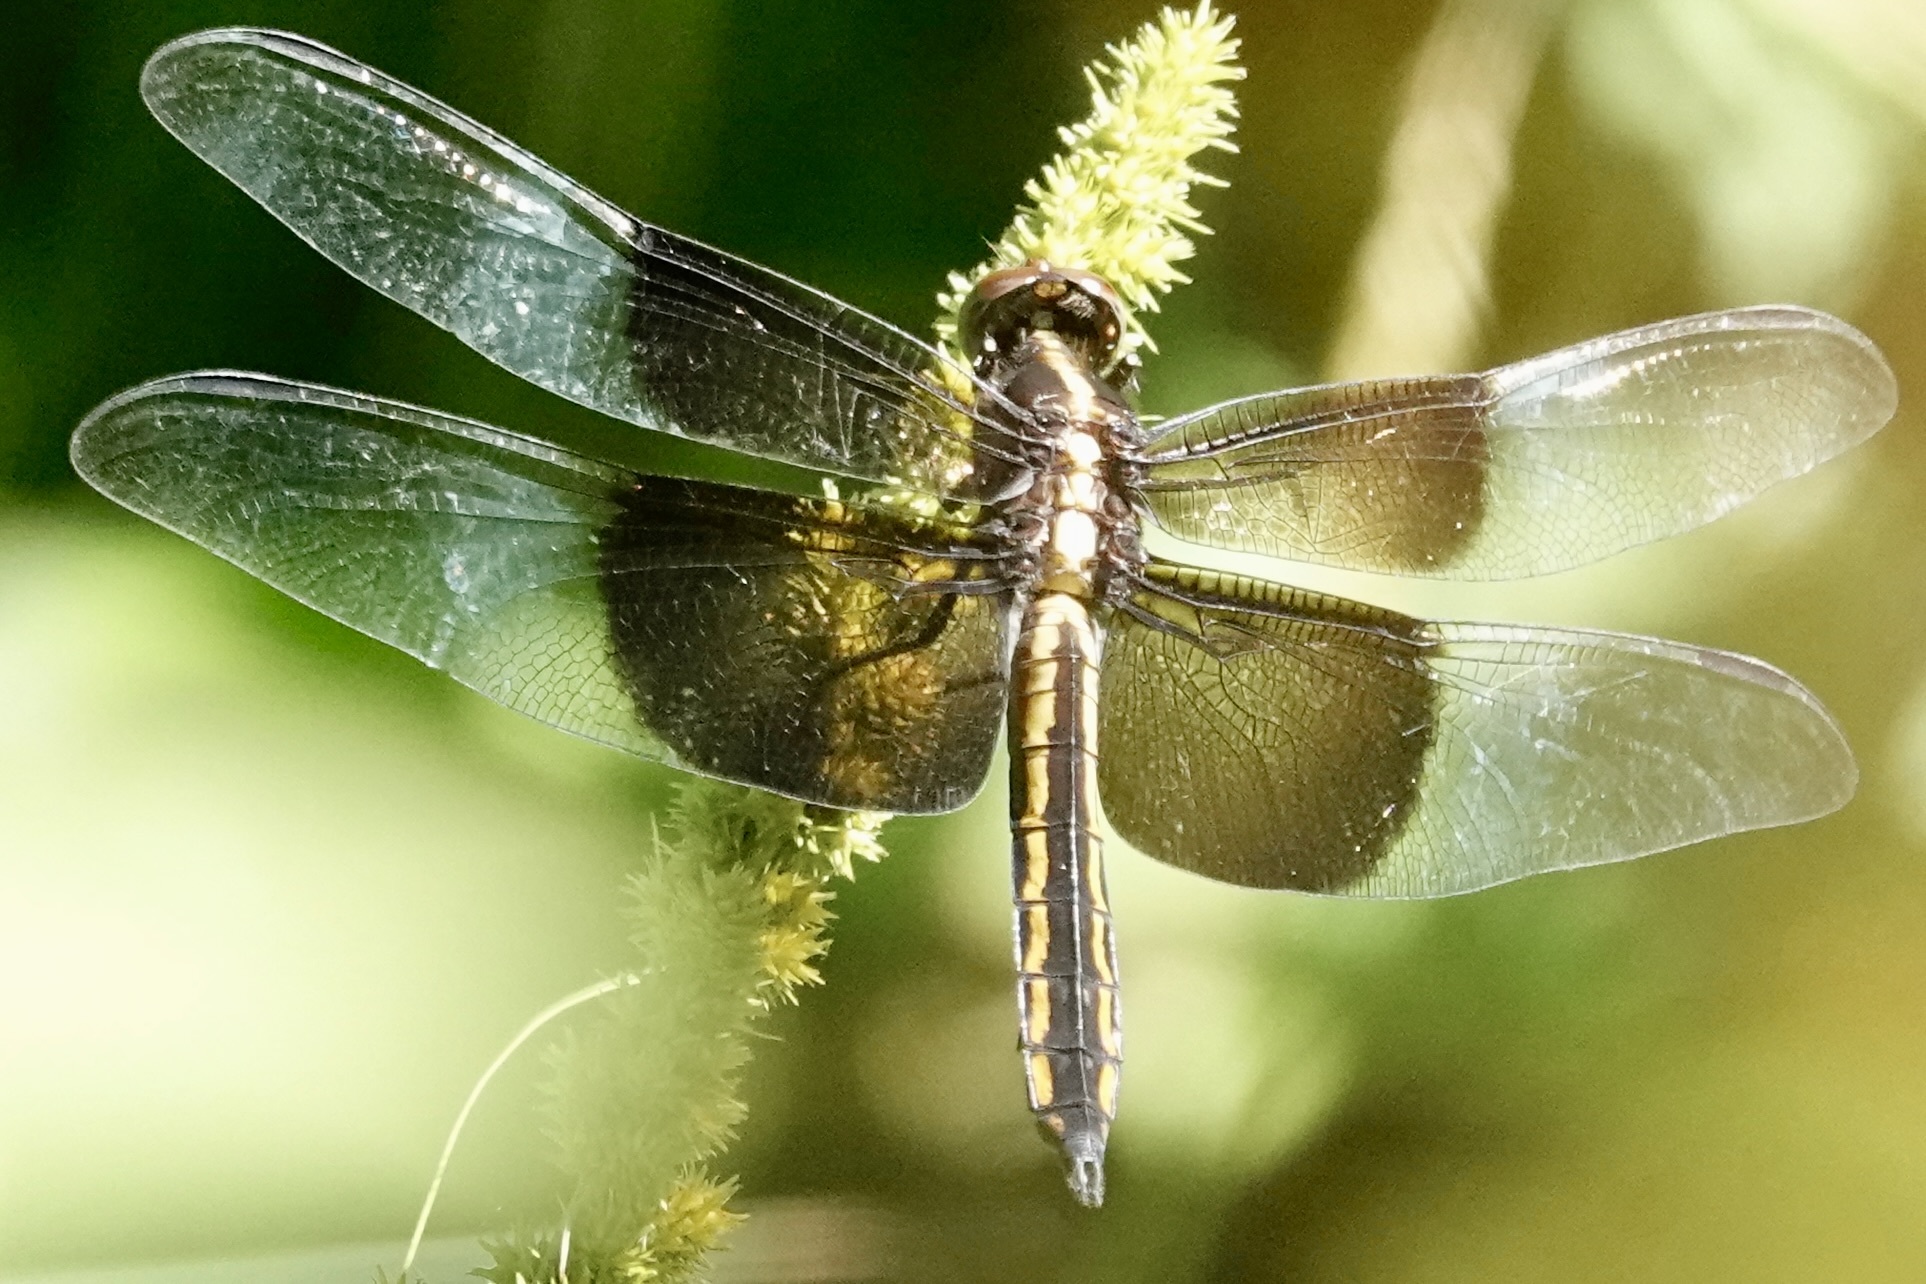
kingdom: Animalia
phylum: Arthropoda
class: Insecta
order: Odonata
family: Libellulidae
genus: Libellula
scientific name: Libellula luctuosa
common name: Widow skimmer
